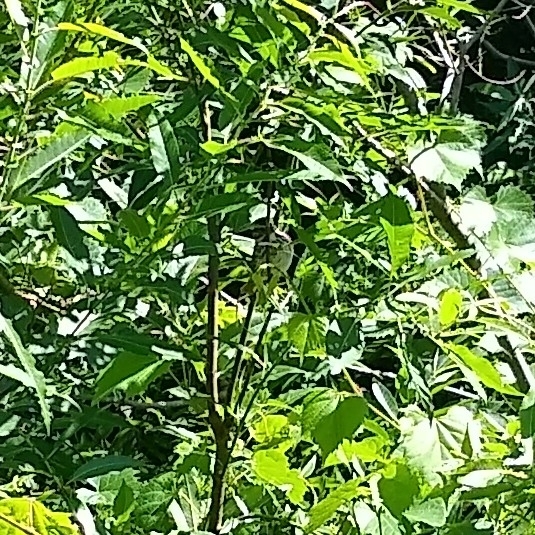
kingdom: Animalia
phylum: Chordata
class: Aves
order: Passeriformes
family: Passerellidae
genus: Melospiza
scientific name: Melospiza melodia
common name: Song sparrow
